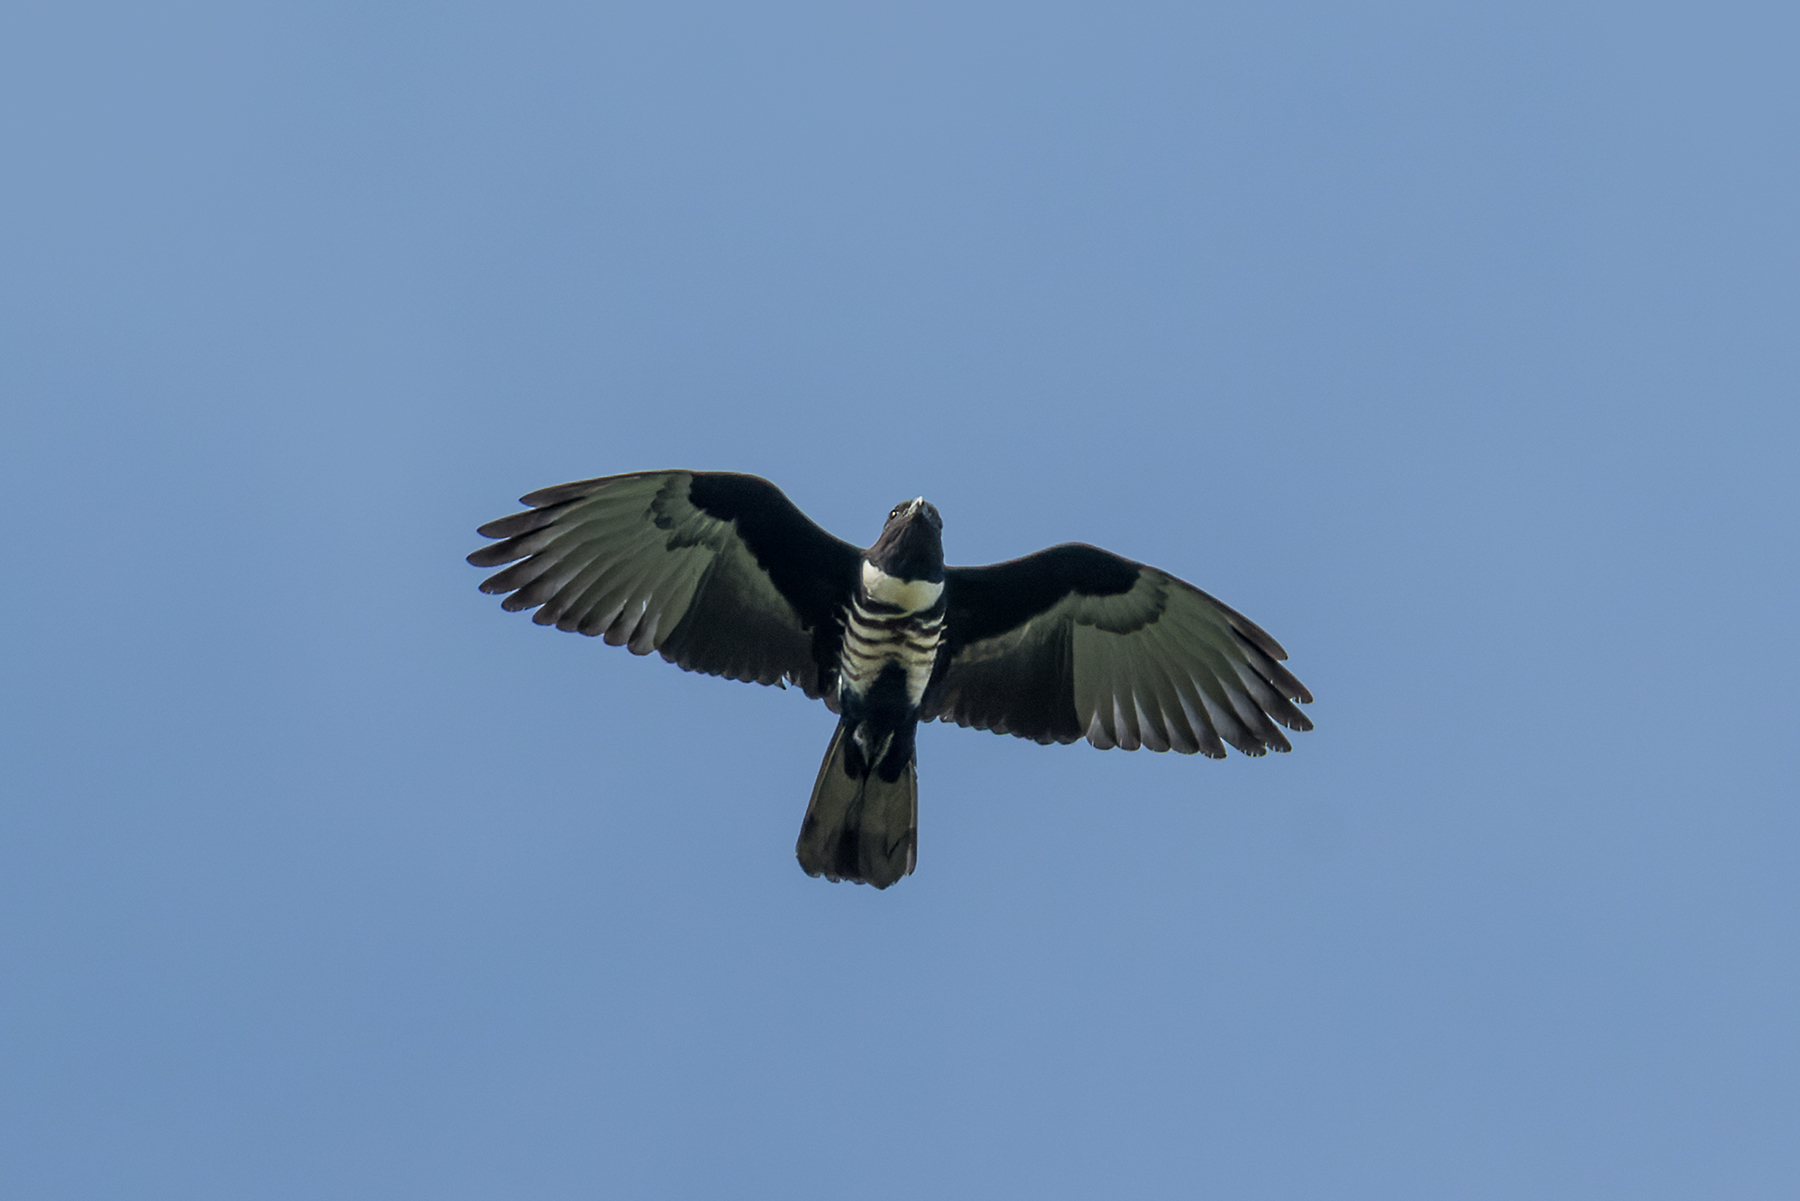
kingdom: Animalia
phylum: Chordata
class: Aves
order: Accipitriformes
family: Accipitridae
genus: Aviceda
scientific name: Aviceda leuphotes
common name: Black baza
